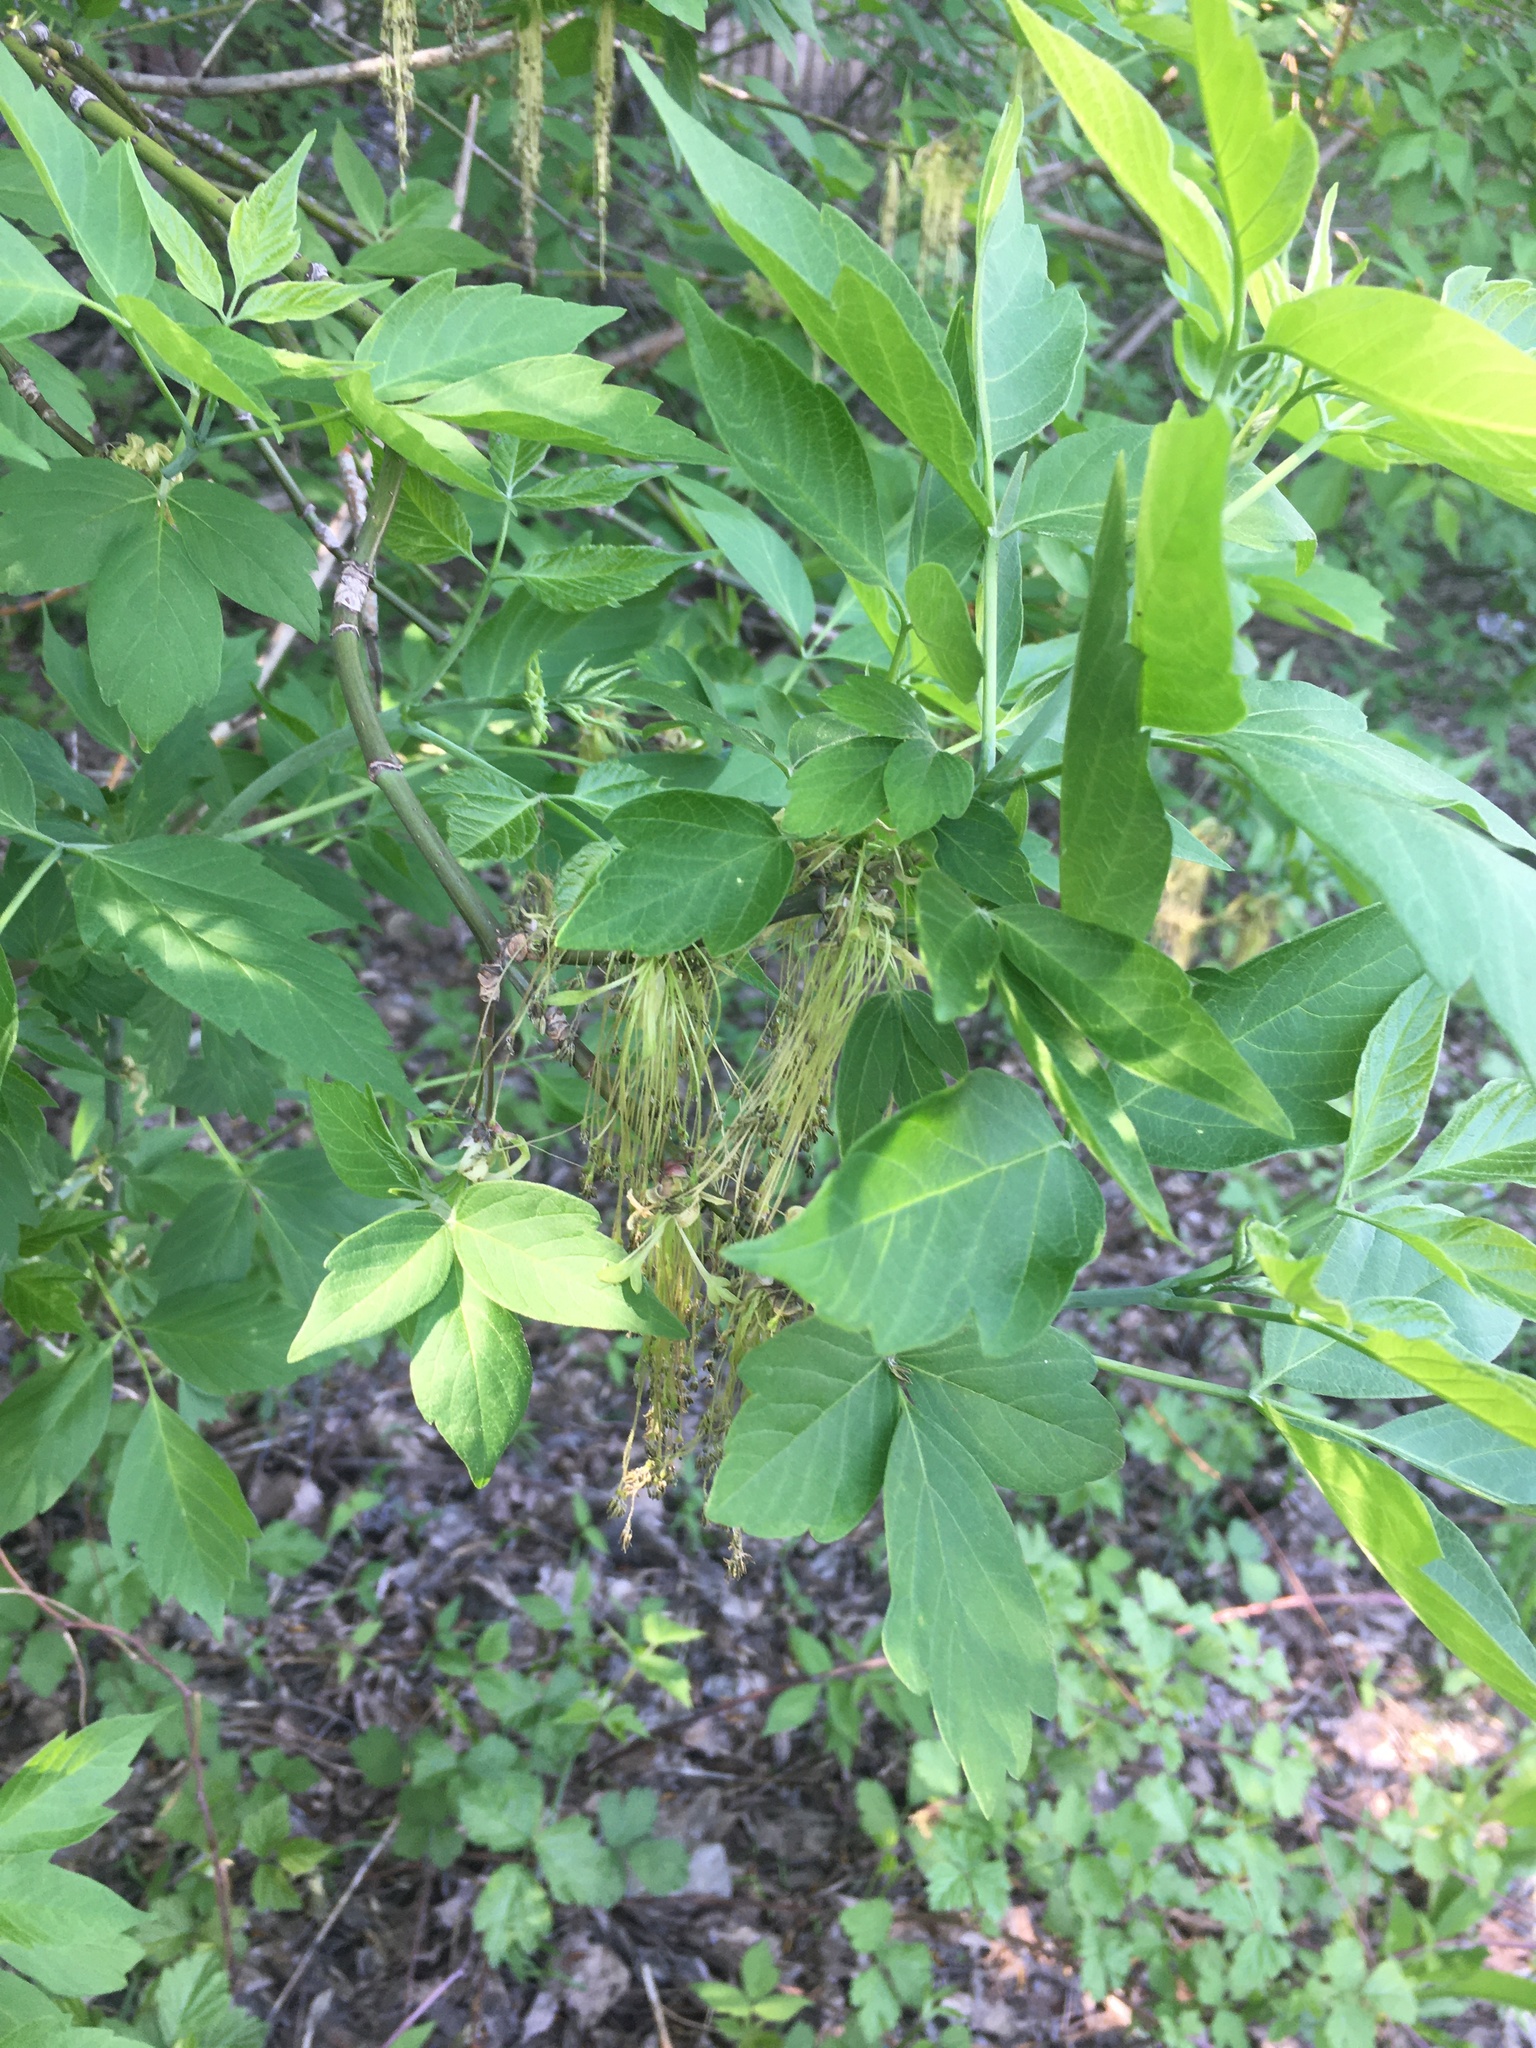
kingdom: Plantae
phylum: Tracheophyta
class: Magnoliopsida
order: Sapindales
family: Sapindaceae
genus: Acer
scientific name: Acer negundo
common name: Ashleaf maple
